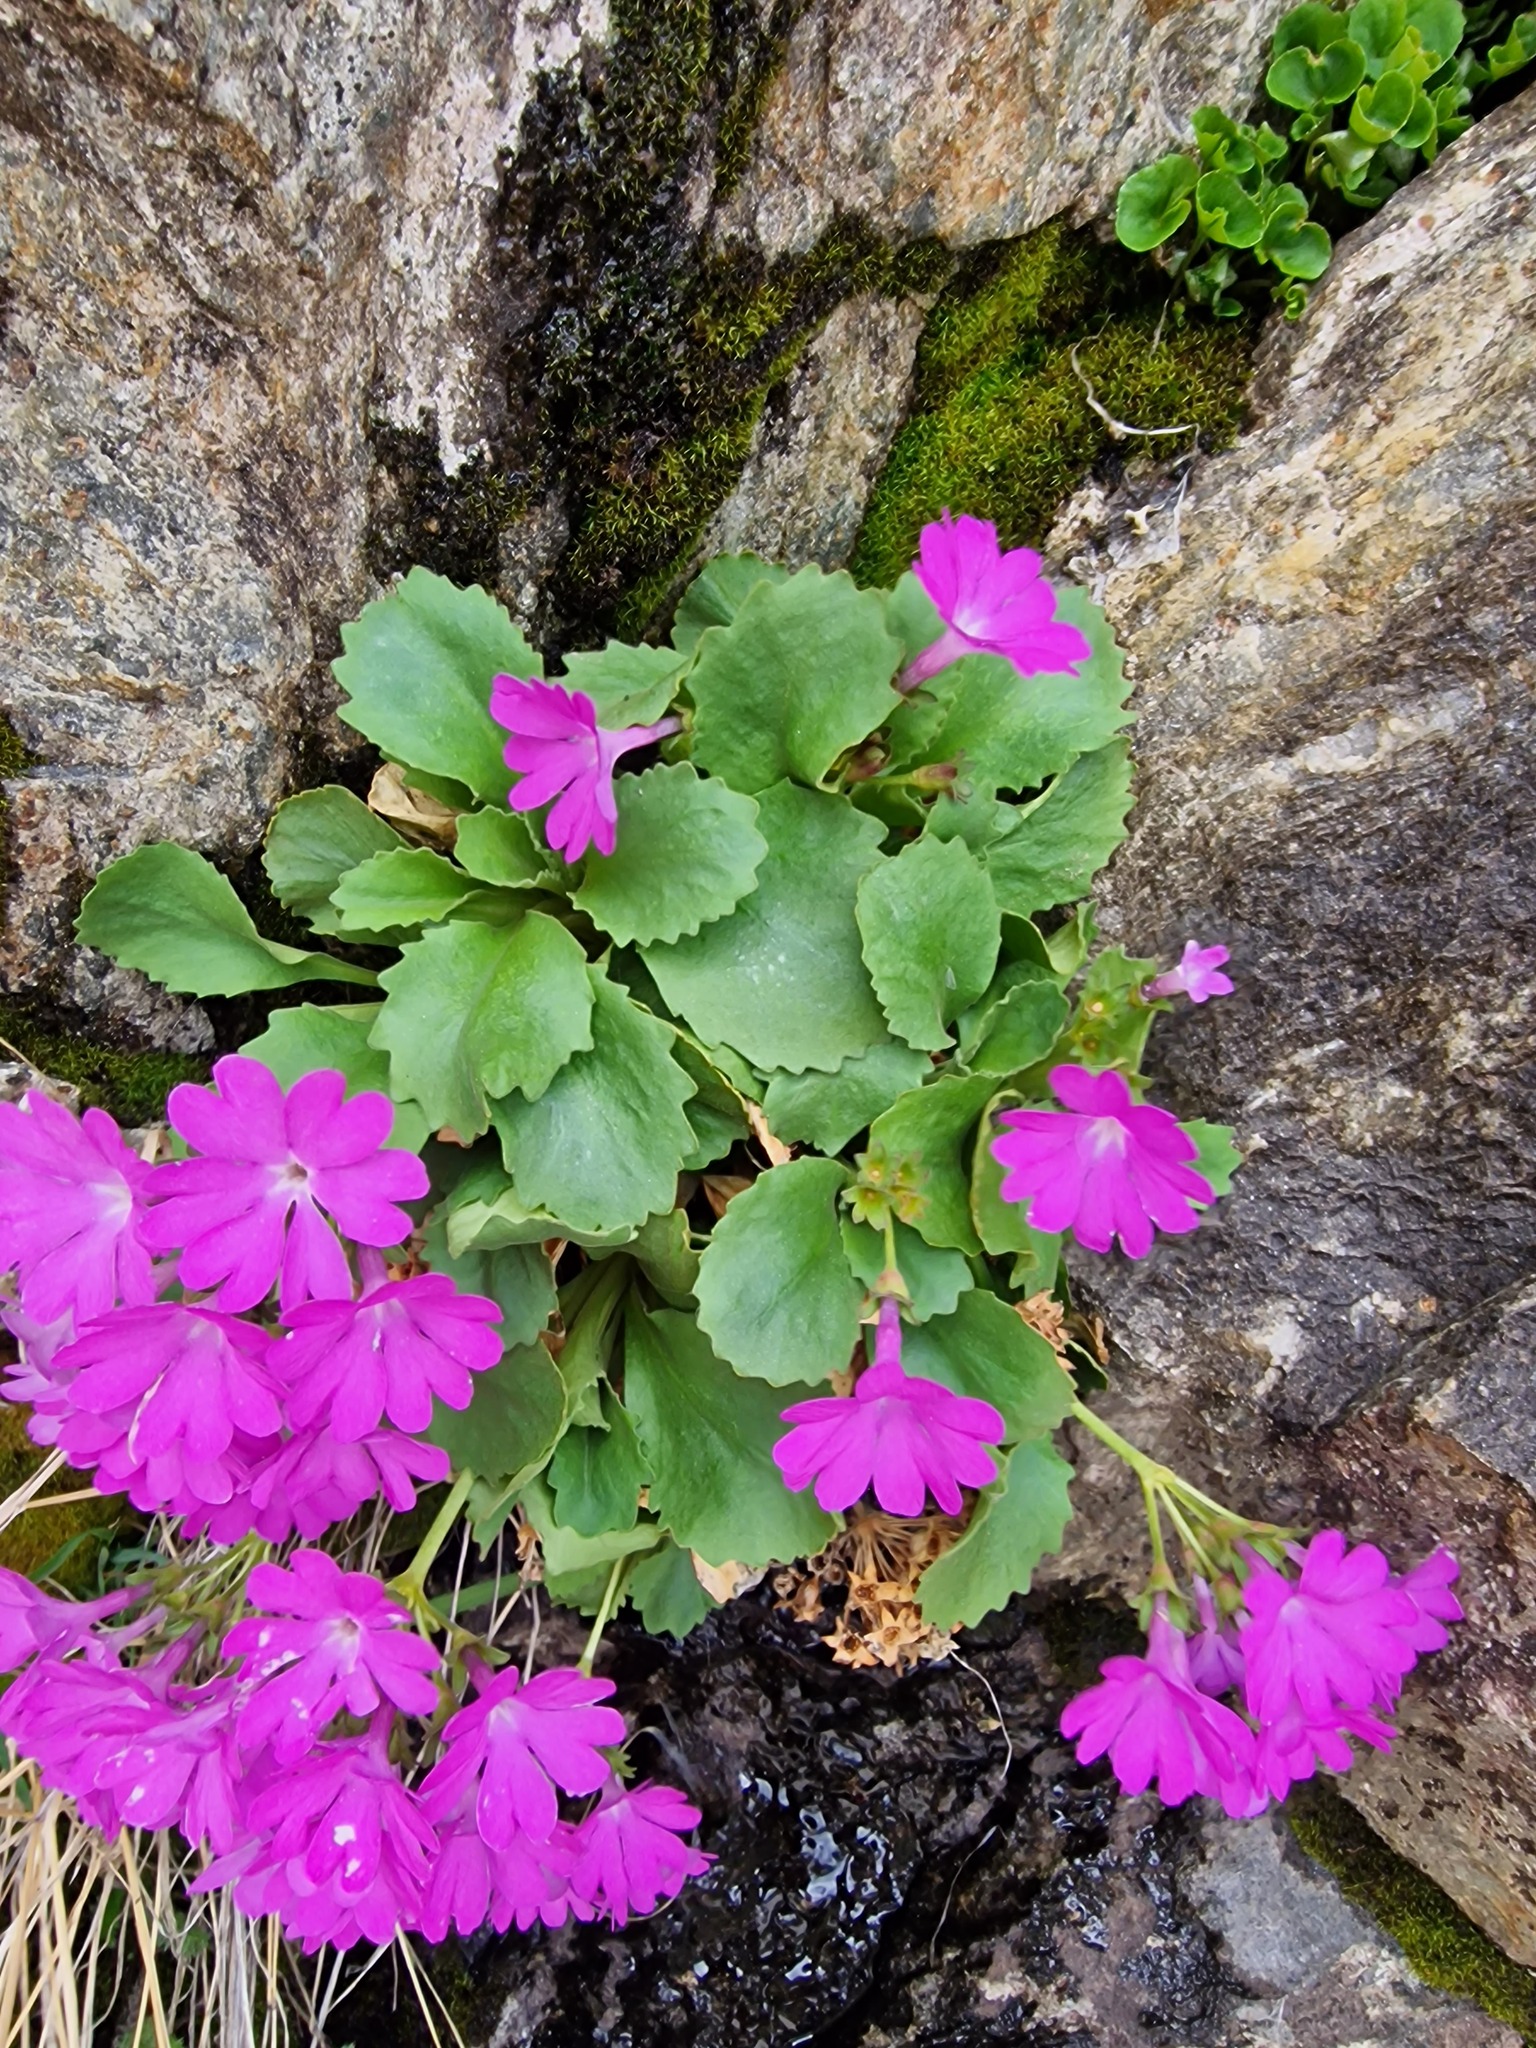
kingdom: Plantae
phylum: Tracheophyta
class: Magnoliopsida
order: Ericales
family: Primulaceae
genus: Primula
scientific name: Primula hirsuta
